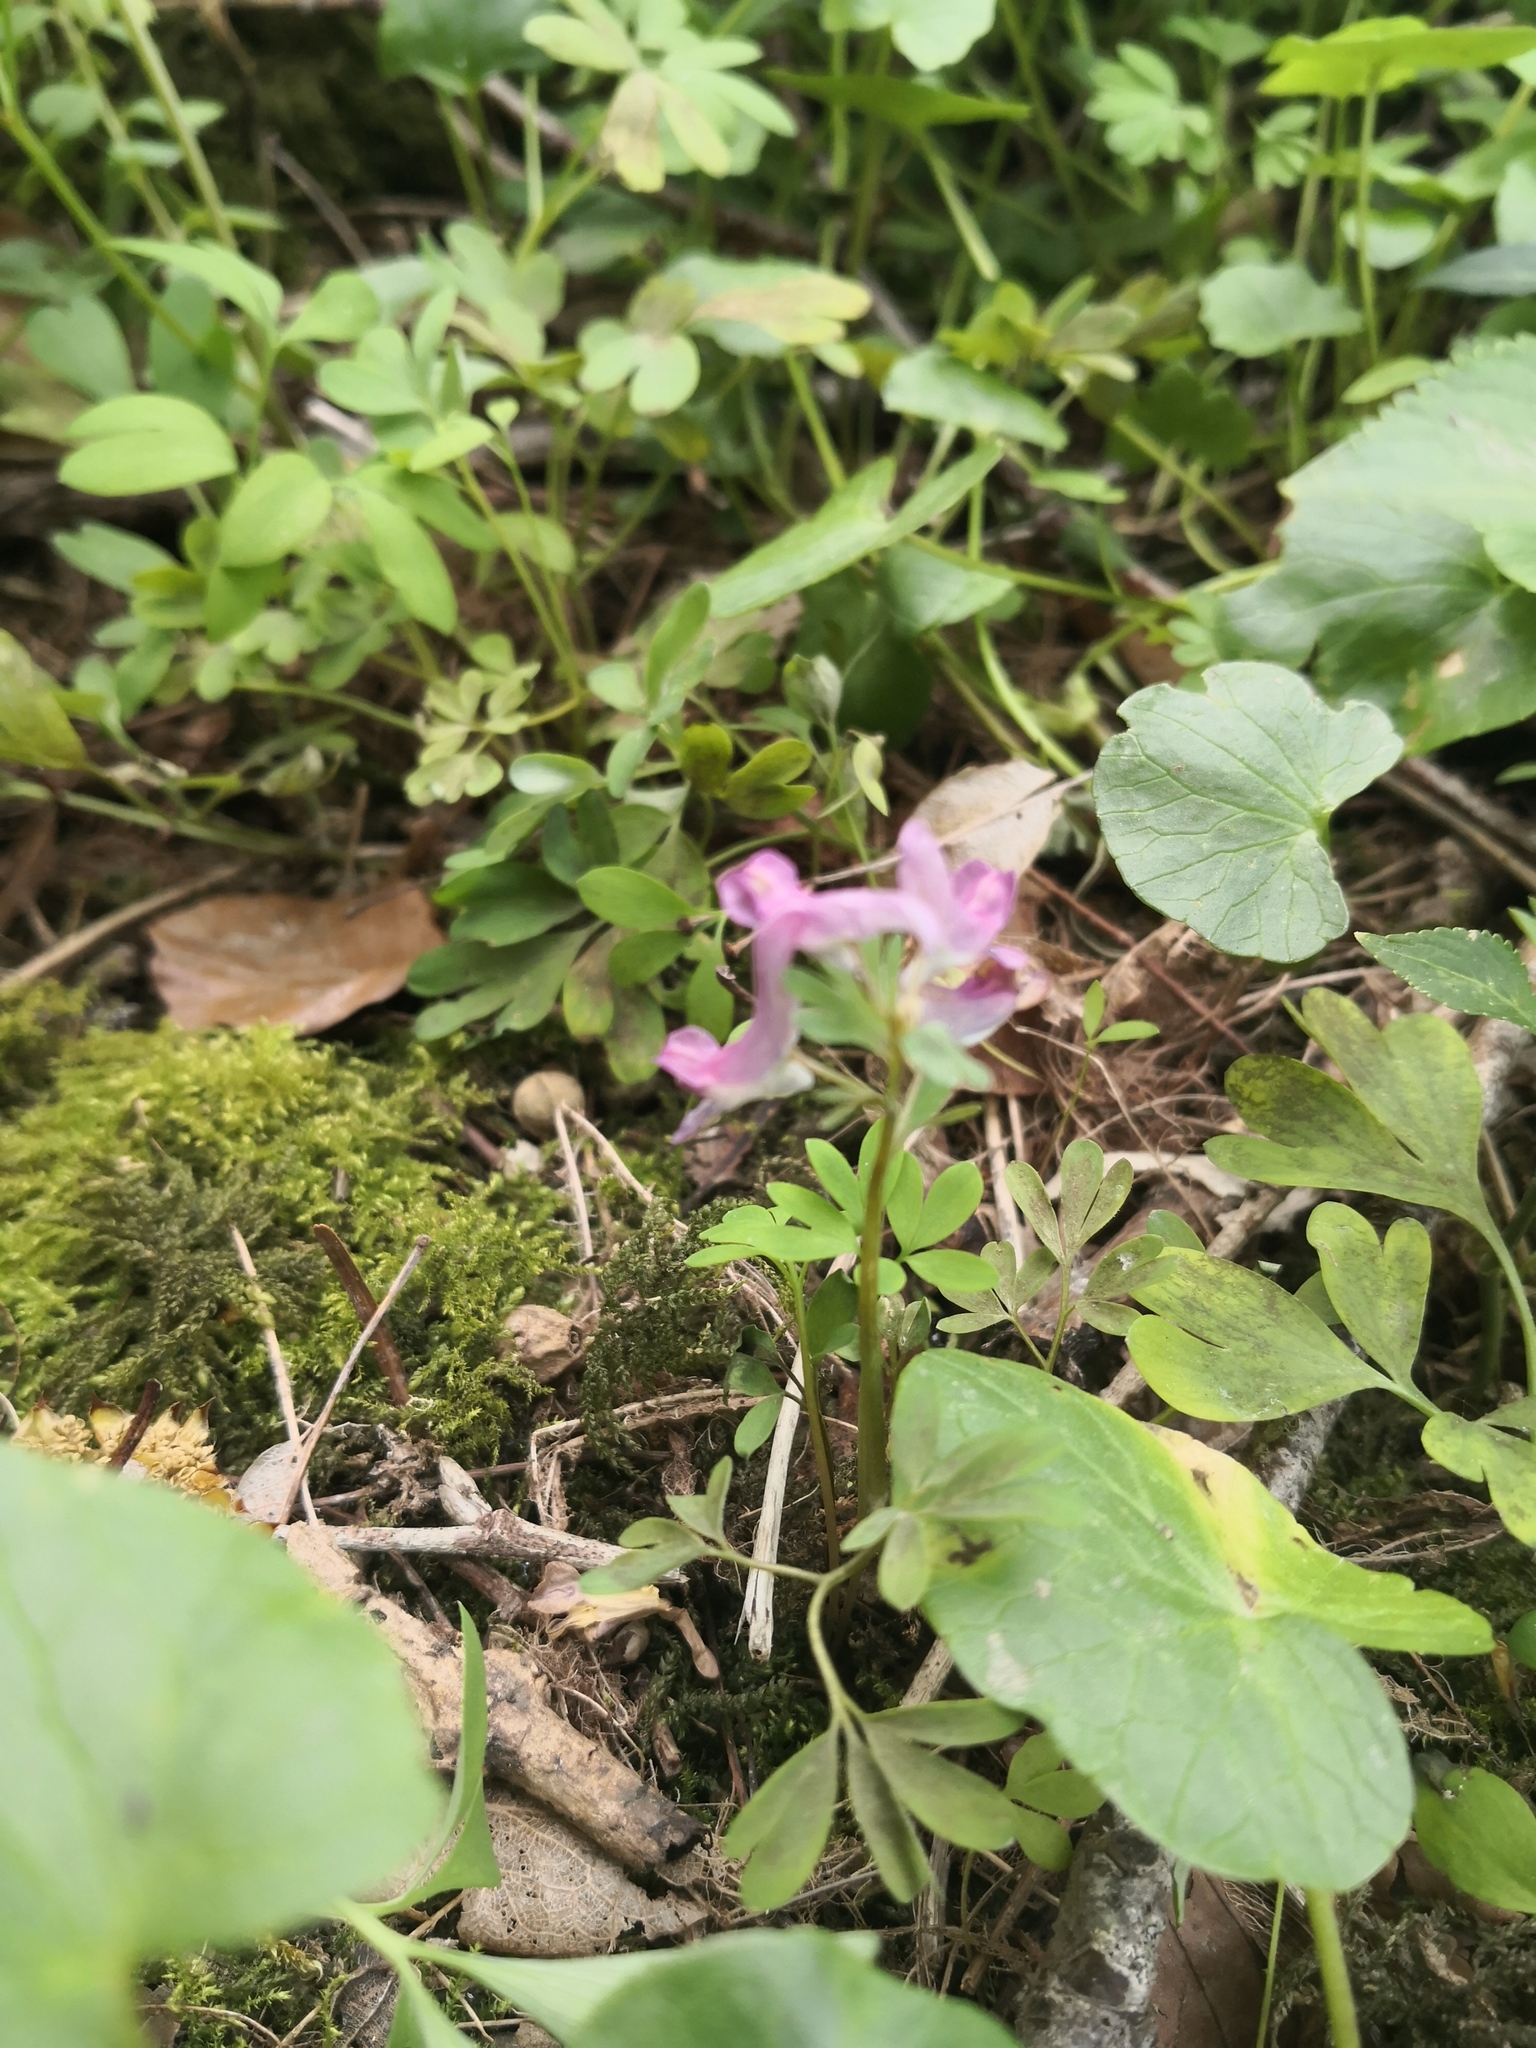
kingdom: Plantae
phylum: Tracheophyta
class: Magnoliopsida
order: Ranunculales
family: Papaveraceae
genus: Corydalis
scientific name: Corydalis solida
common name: Bird-in-a-bush
